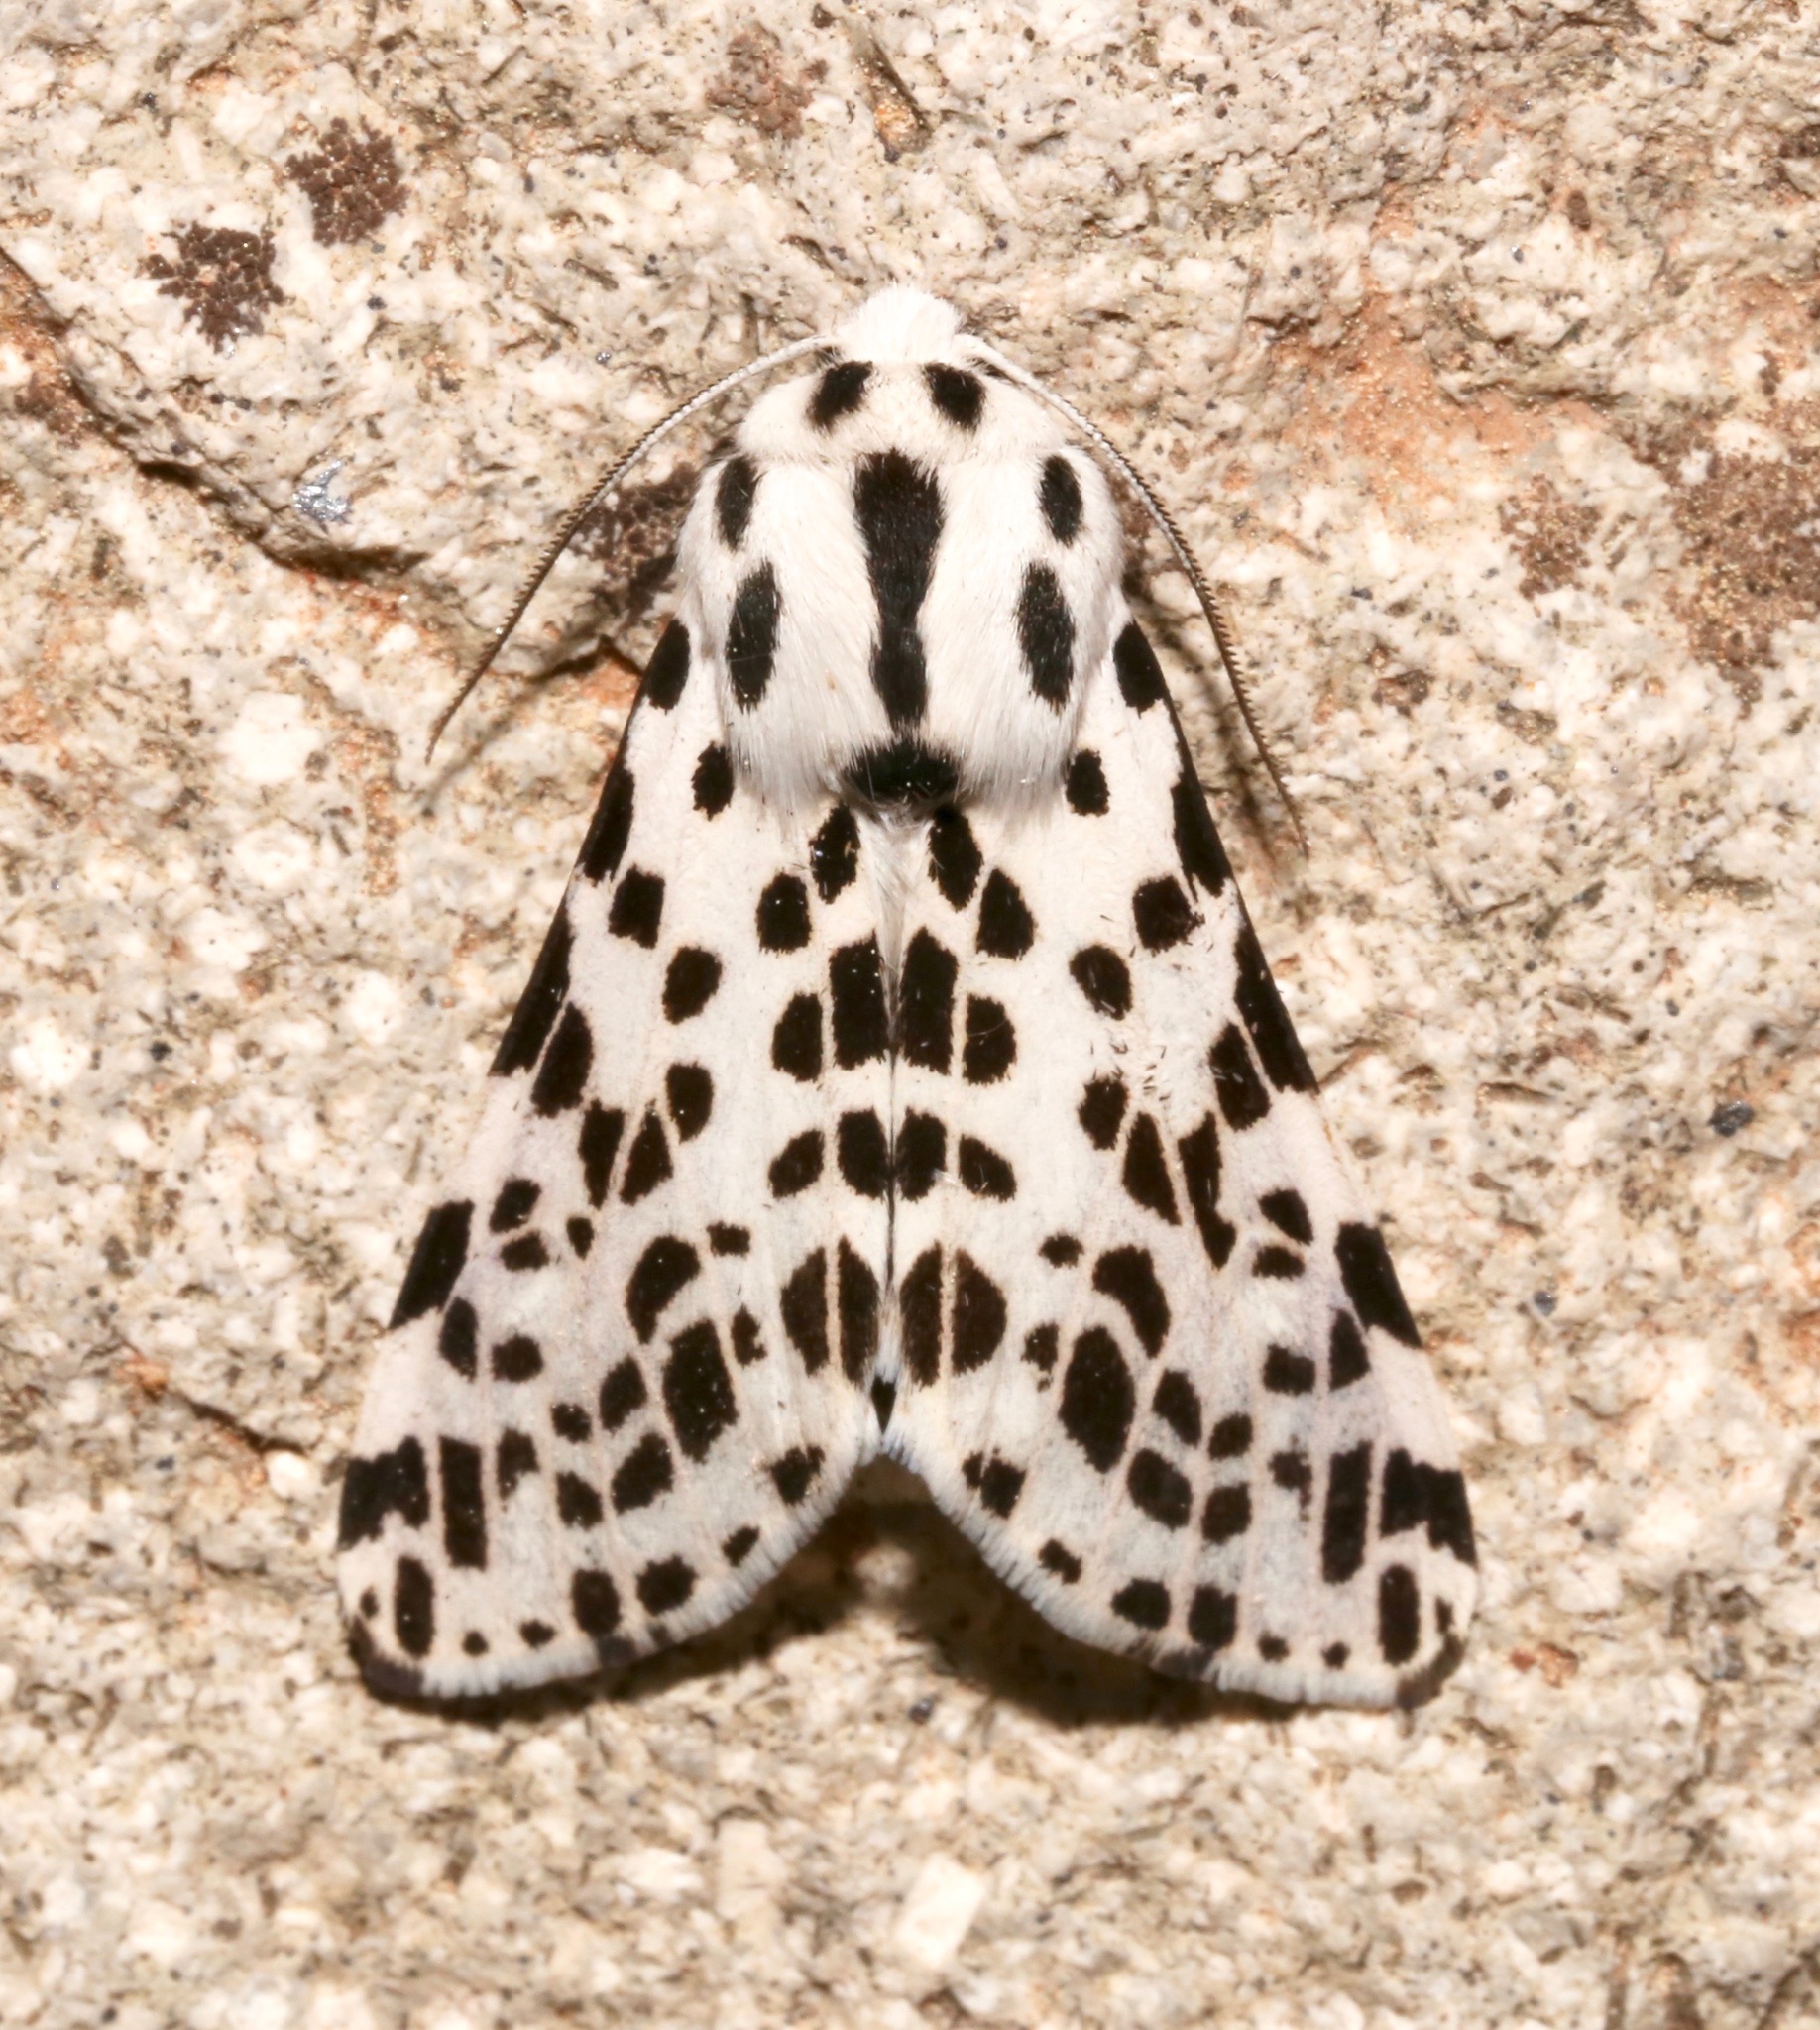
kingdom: Animalia
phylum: Arthropoda
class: Insecta
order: Lepidoptera
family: Erebidae
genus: Hypercompe
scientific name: Hypercompe permaculata
